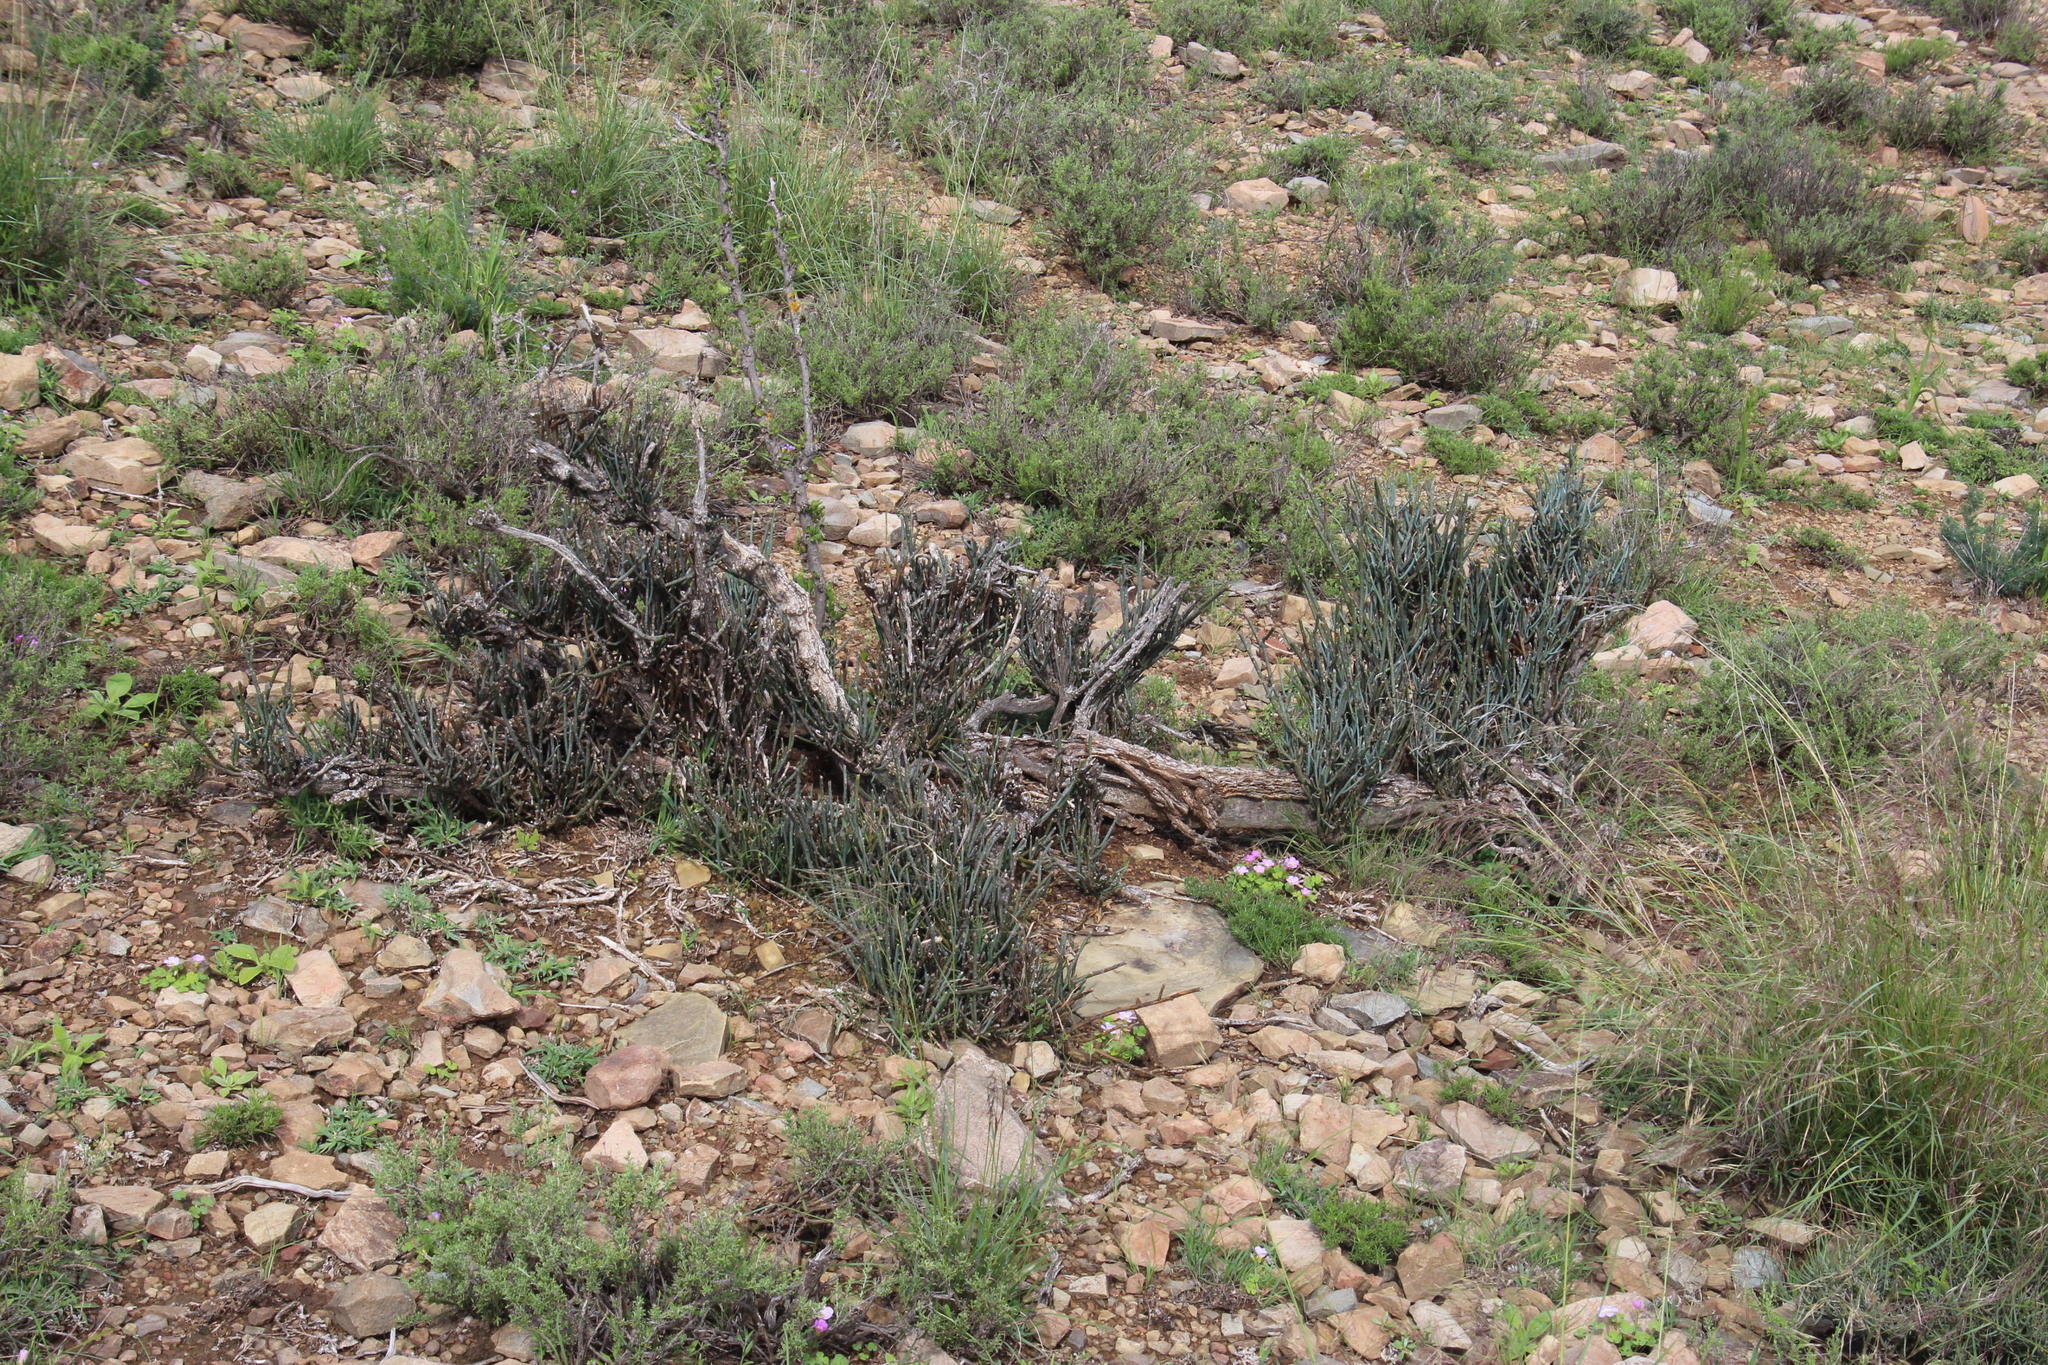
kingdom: Plantae
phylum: Tracheophyta
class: Magnoliopsida
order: Brassicales
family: Capparaceae
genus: Cadaba
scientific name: Cadaba aphylla
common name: Black storm
